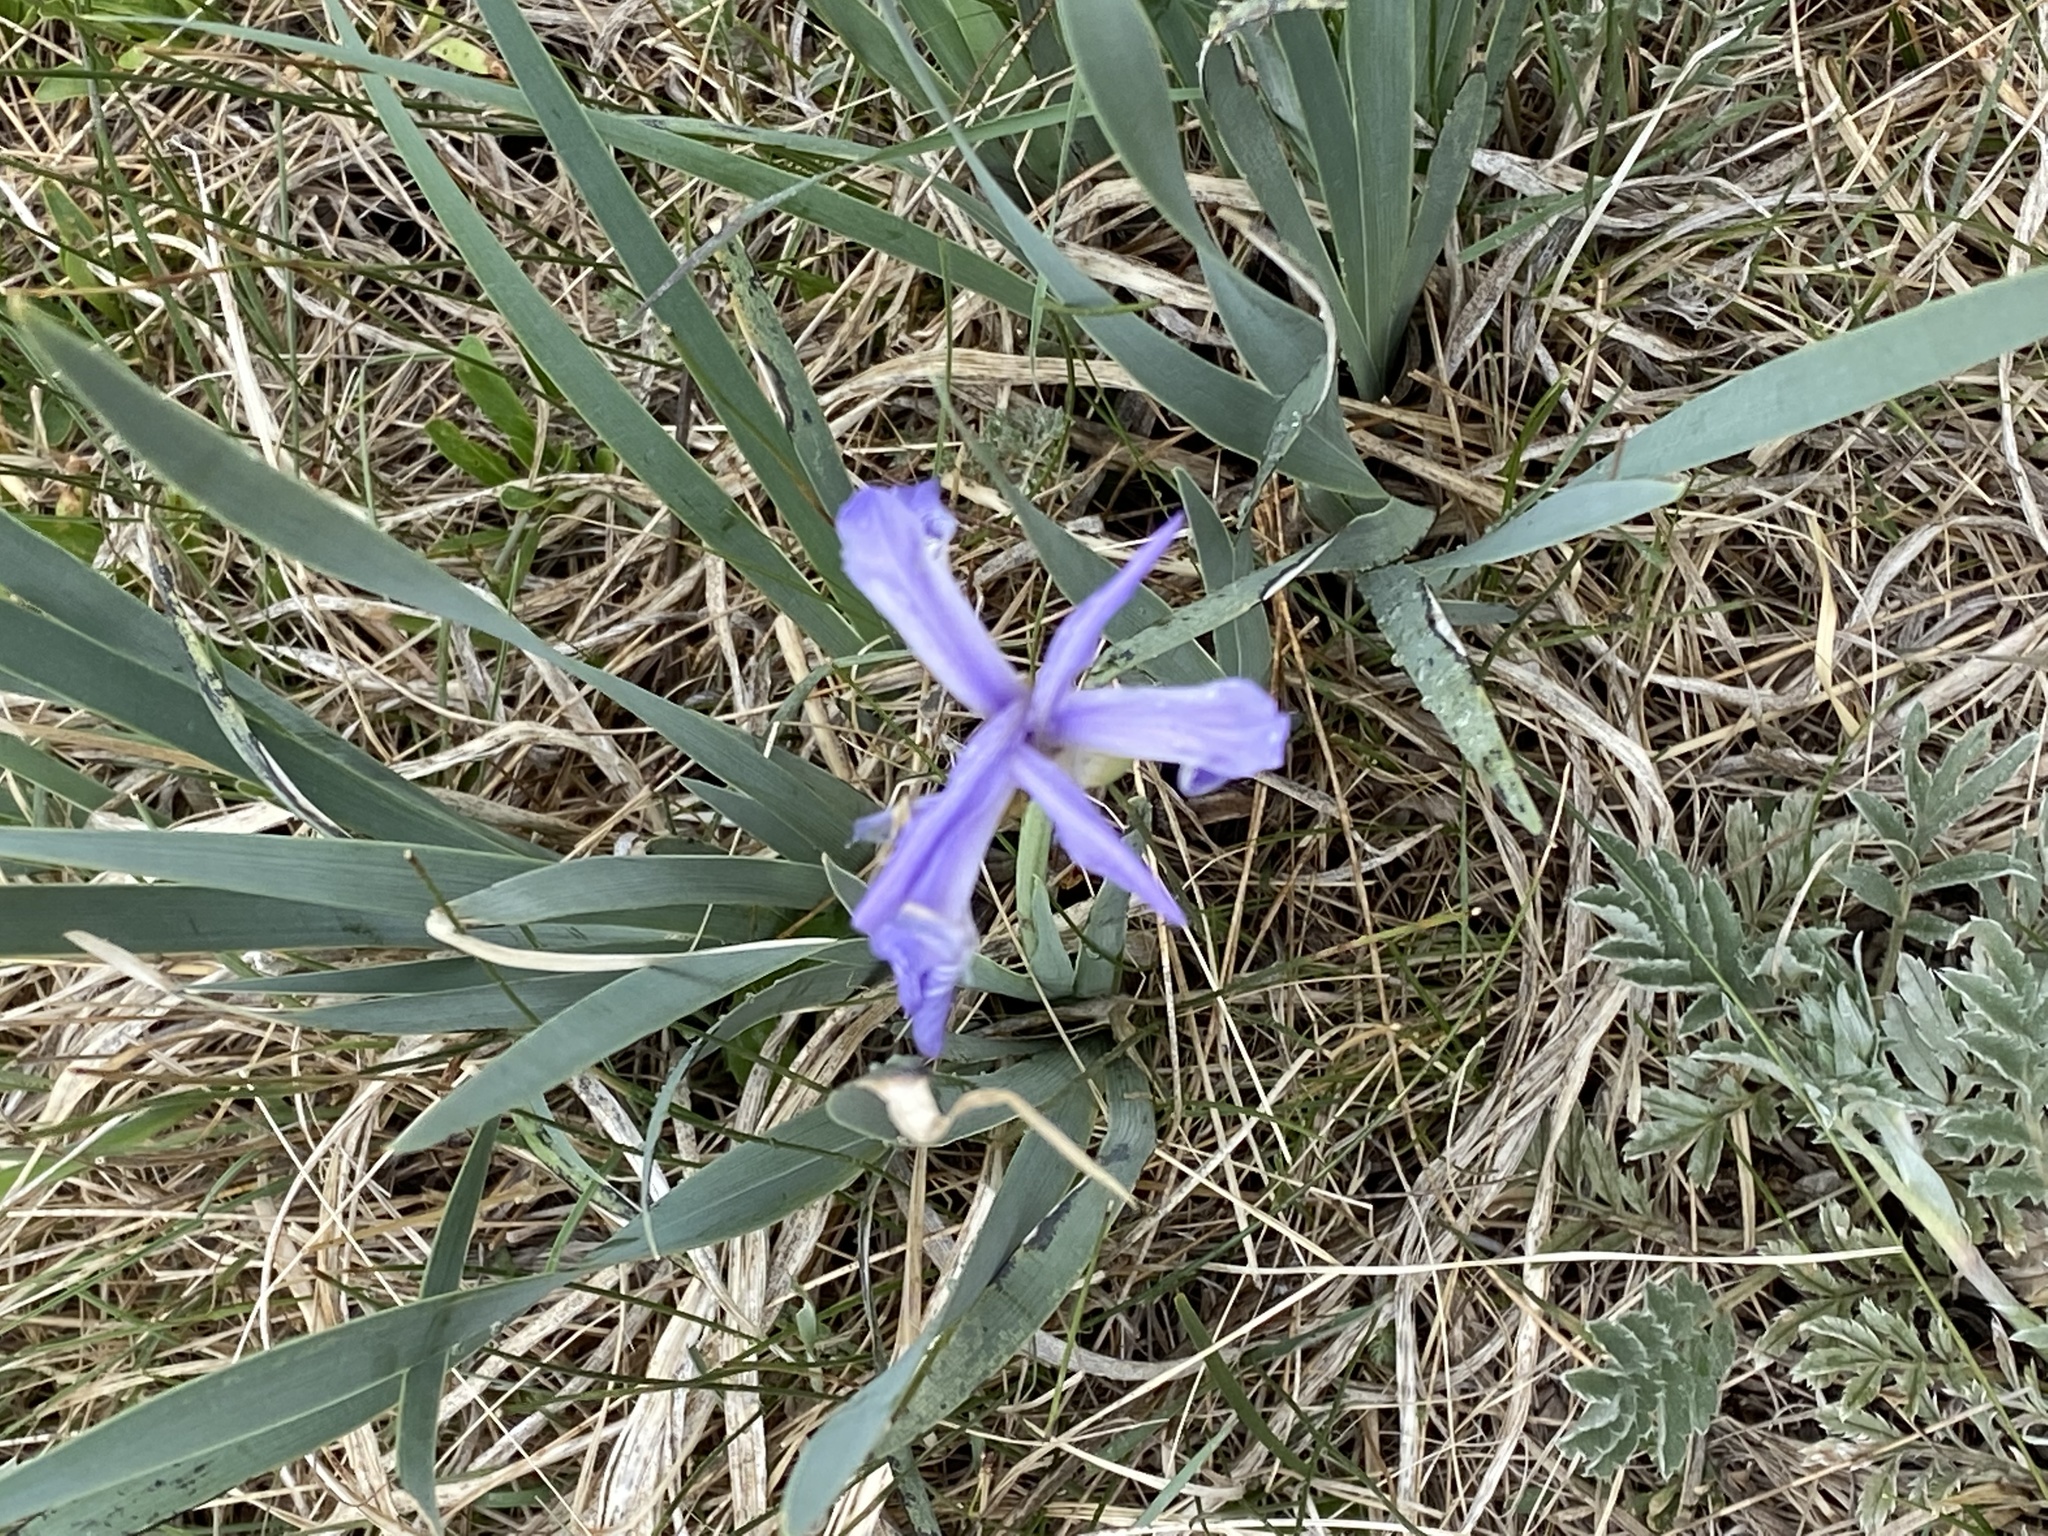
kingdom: Plantae
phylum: Tracheophyta
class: Liliopsida
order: Asparagales
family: Iridaceae
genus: Iris
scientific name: Iris missouriensis
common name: Rocky mountain iris
